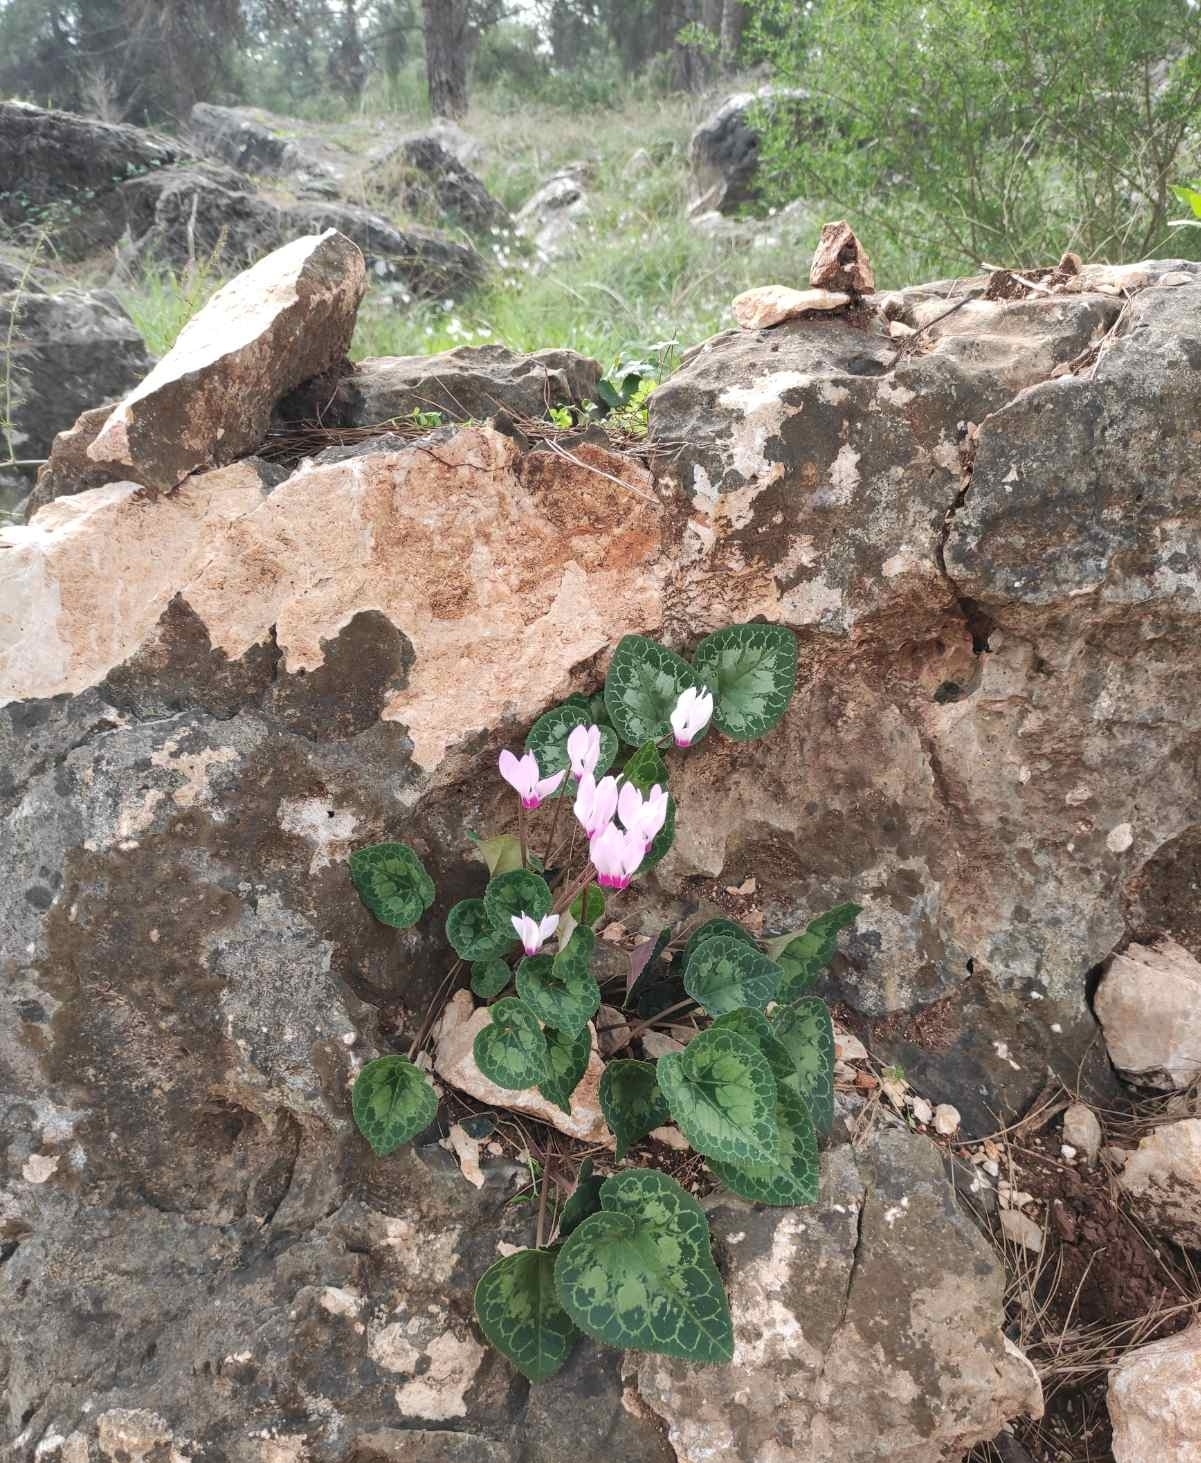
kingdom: Plantae
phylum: Tracheophyta
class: Magnoliopsida
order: Ericales
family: Primulaceae
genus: Cyclamen
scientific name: Cyclamen persicum
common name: Florist's cyclamen
